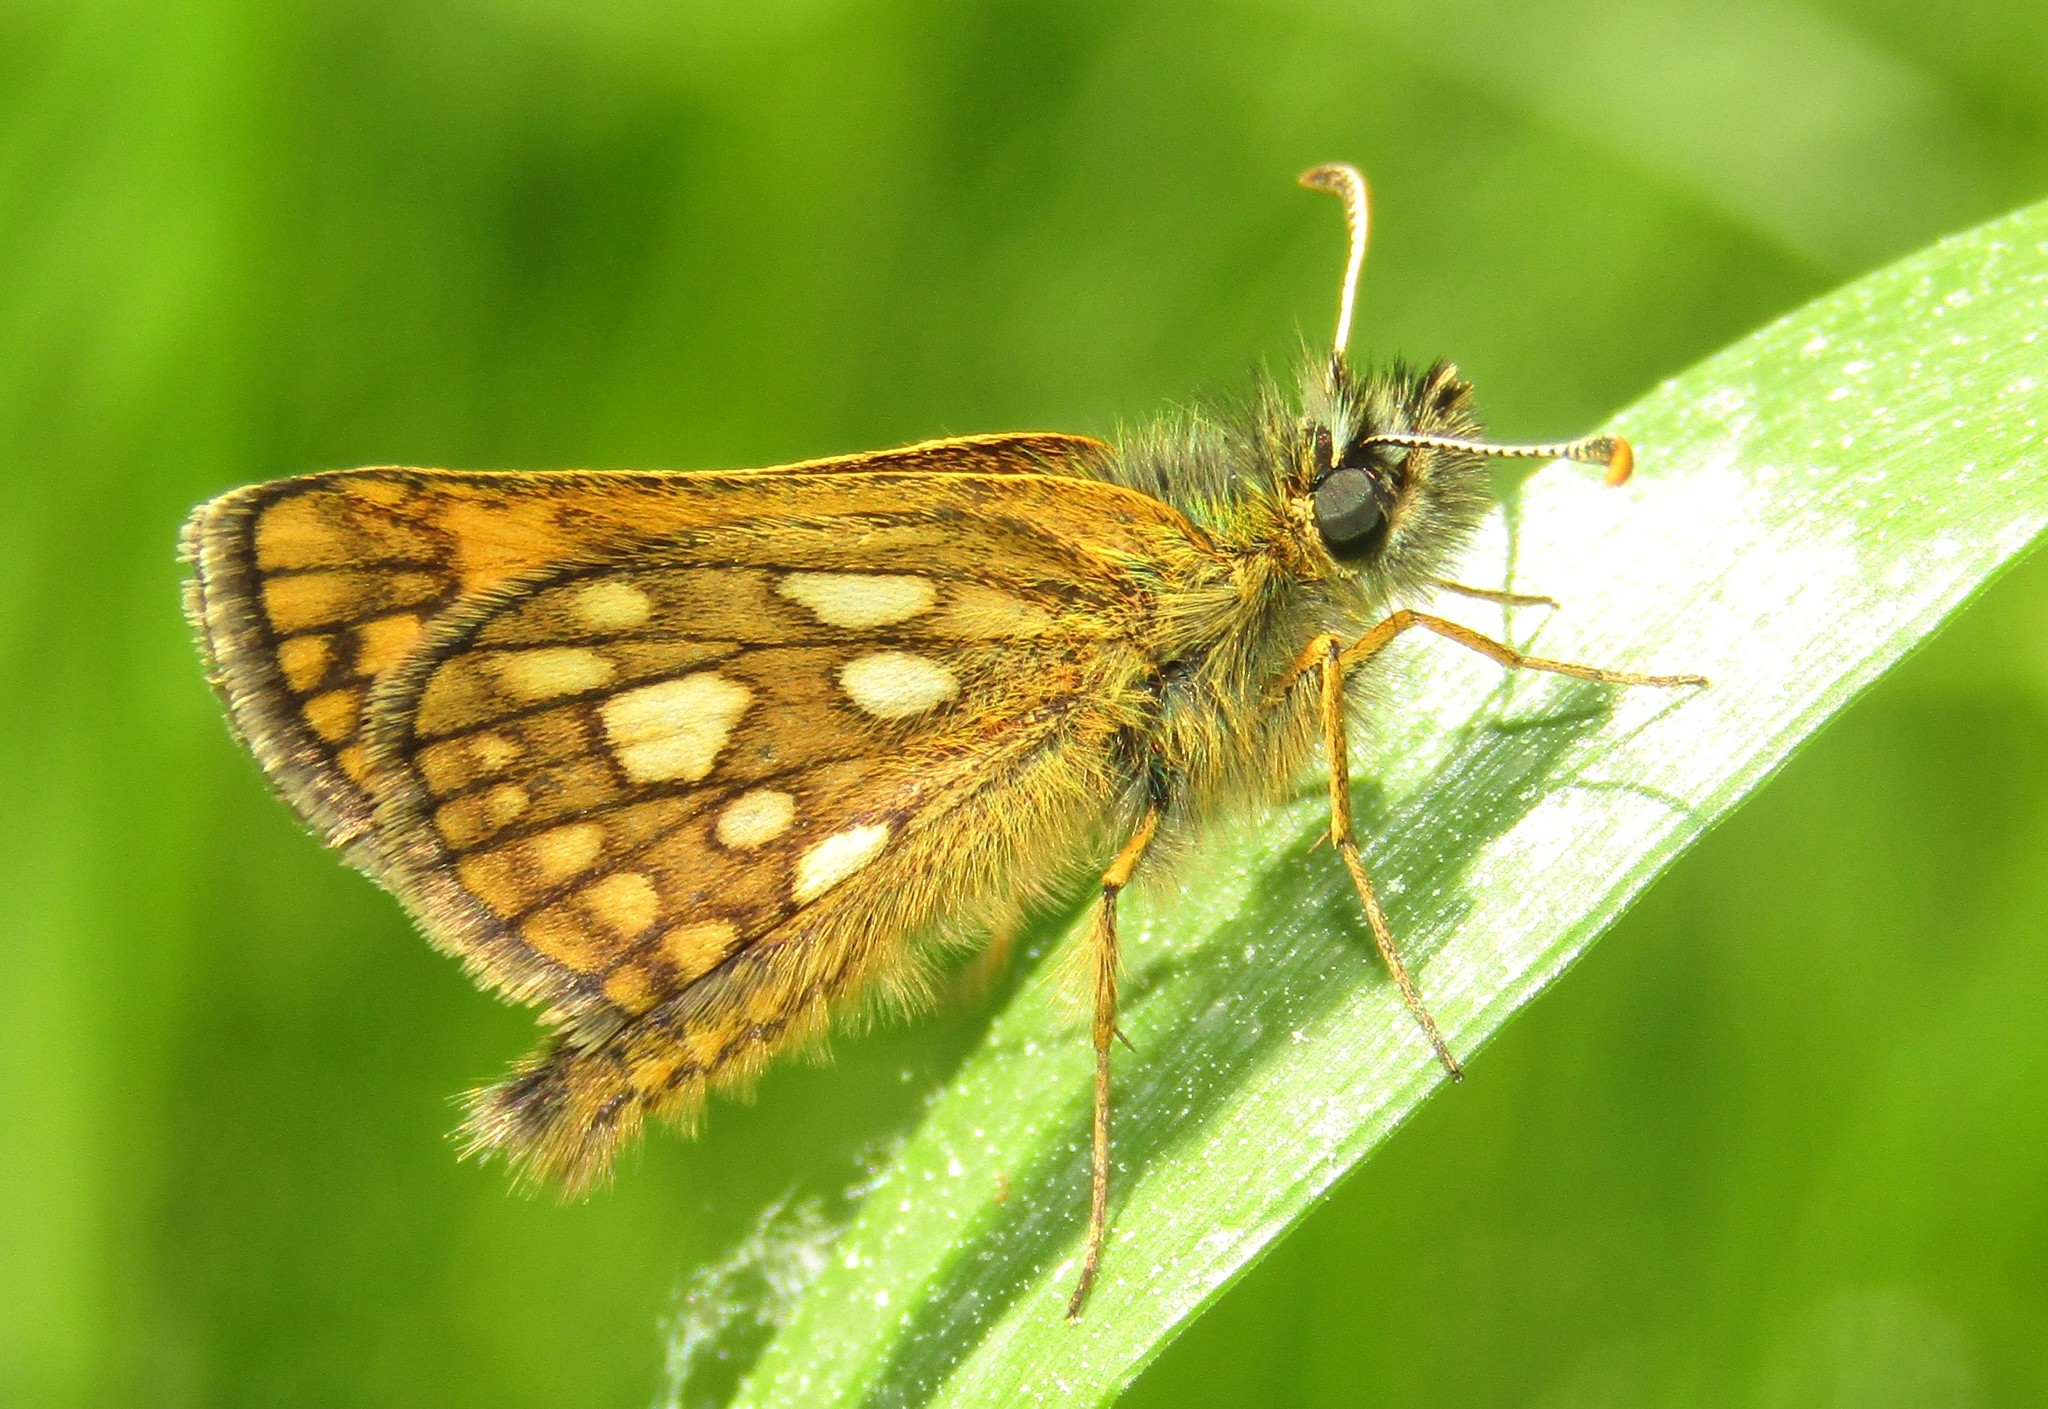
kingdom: Animalia
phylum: Arthropoda
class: Insecta
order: Lepidoptera
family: Hesperiidae
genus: Carterocephalus
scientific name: Carterocephalus palaemon
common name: Chequered skipper
